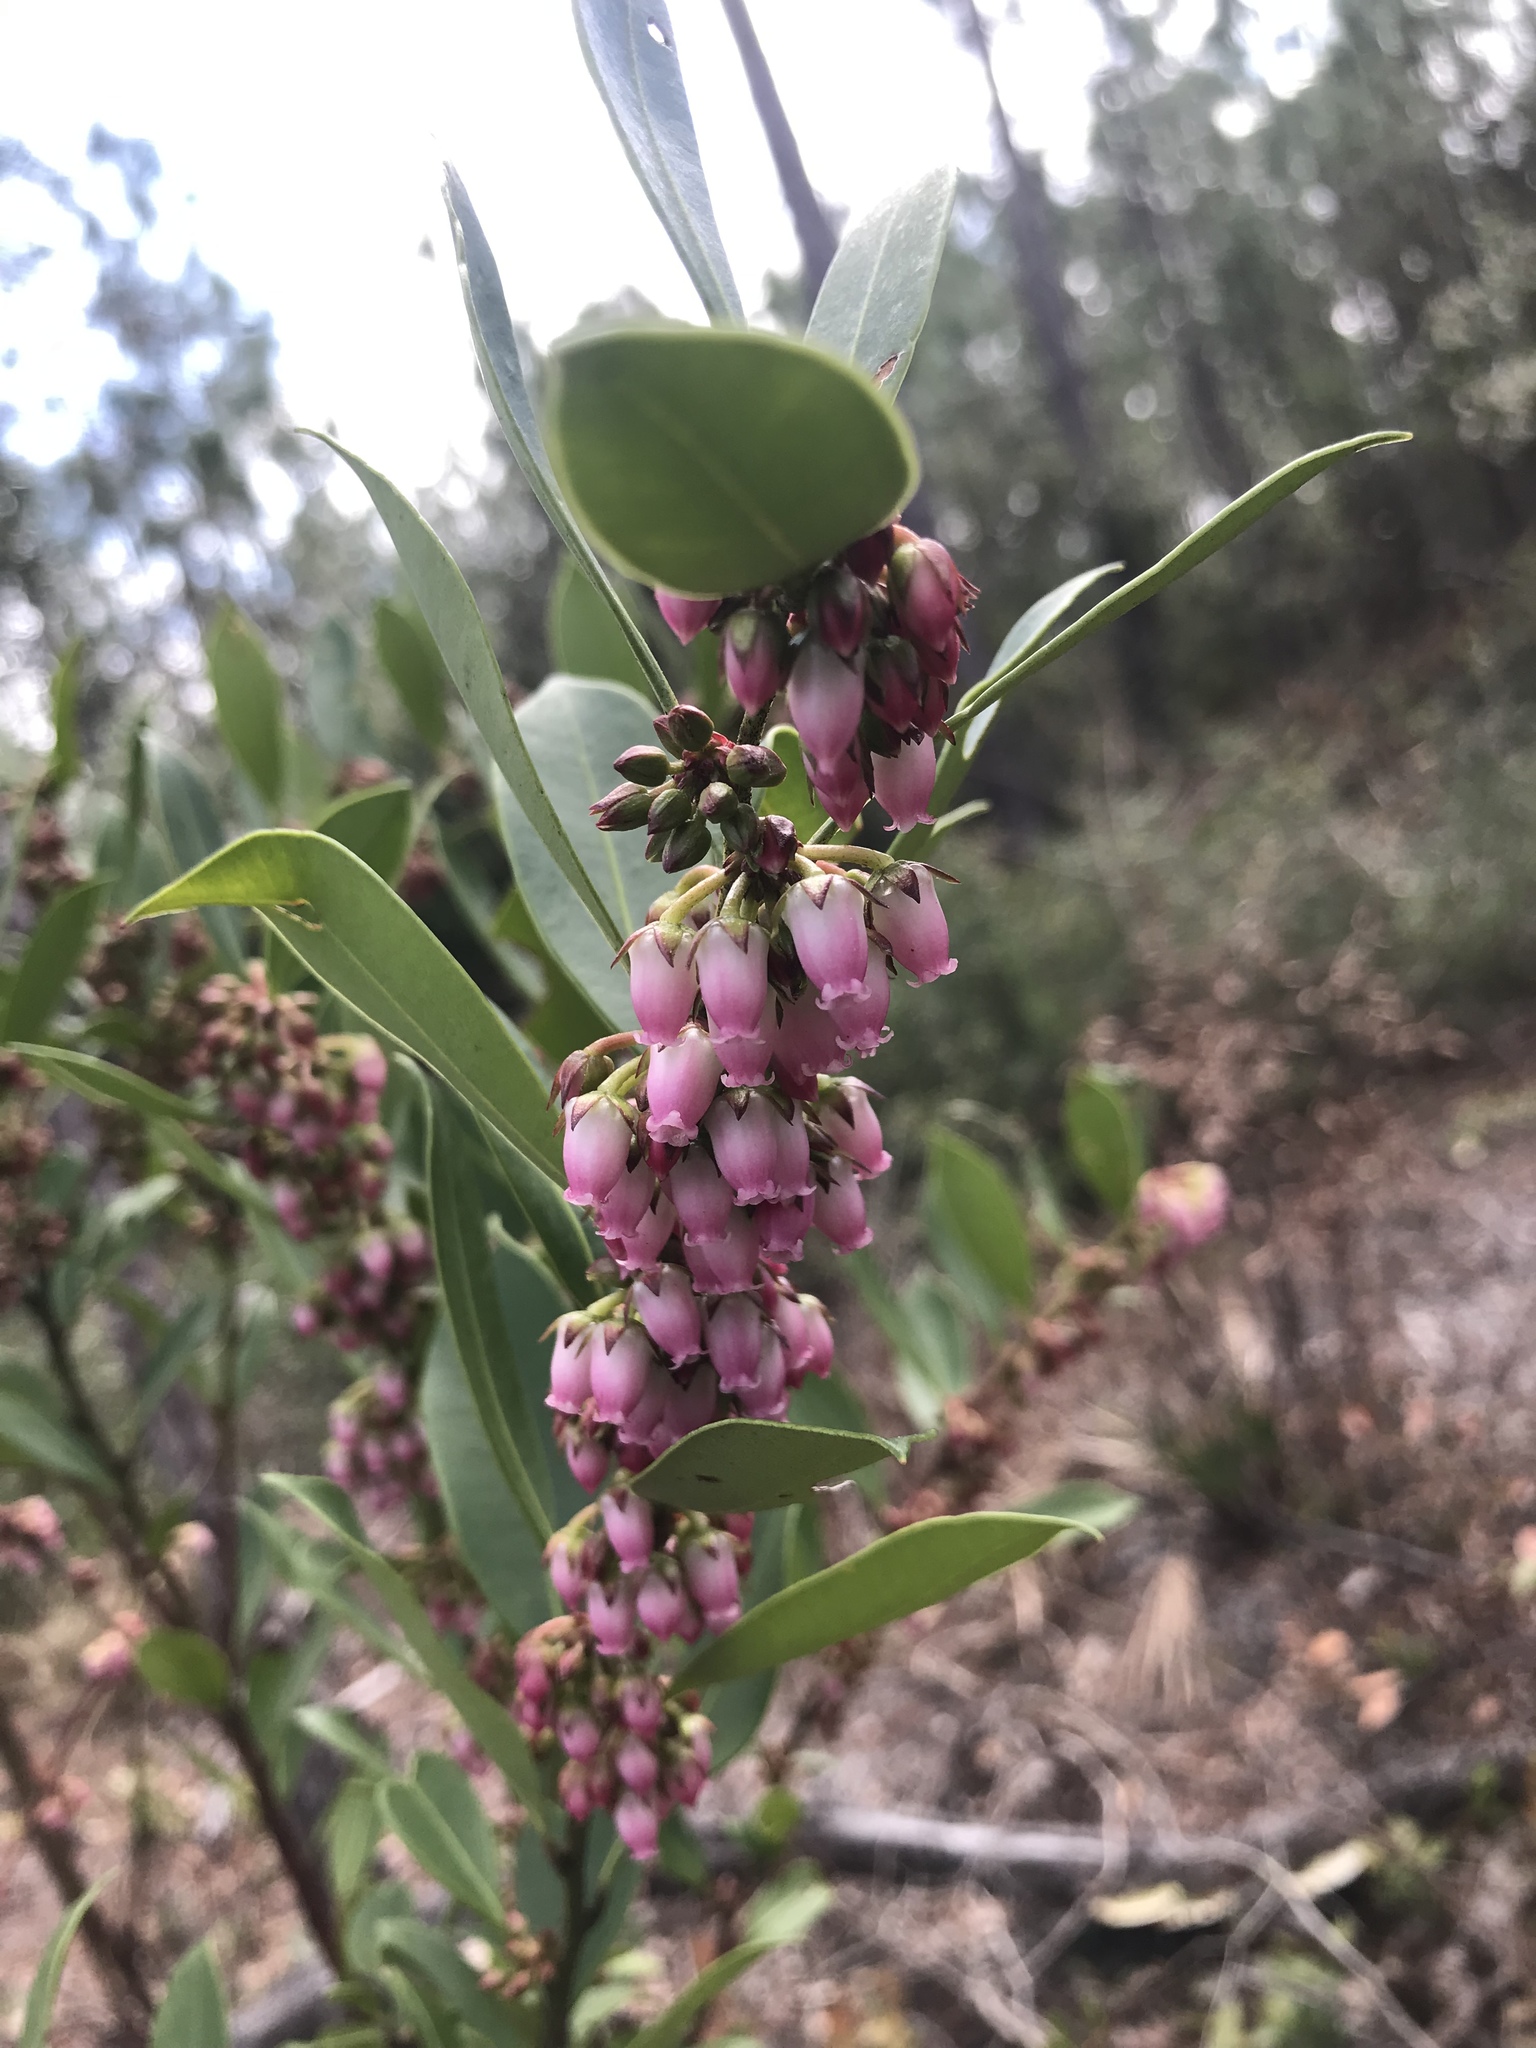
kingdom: Plantae
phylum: Tracheophyta
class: Magnoliopsida
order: Ericales
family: Ericaceae
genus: Lyonia
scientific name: Lyonia lucida
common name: Fetterbush
